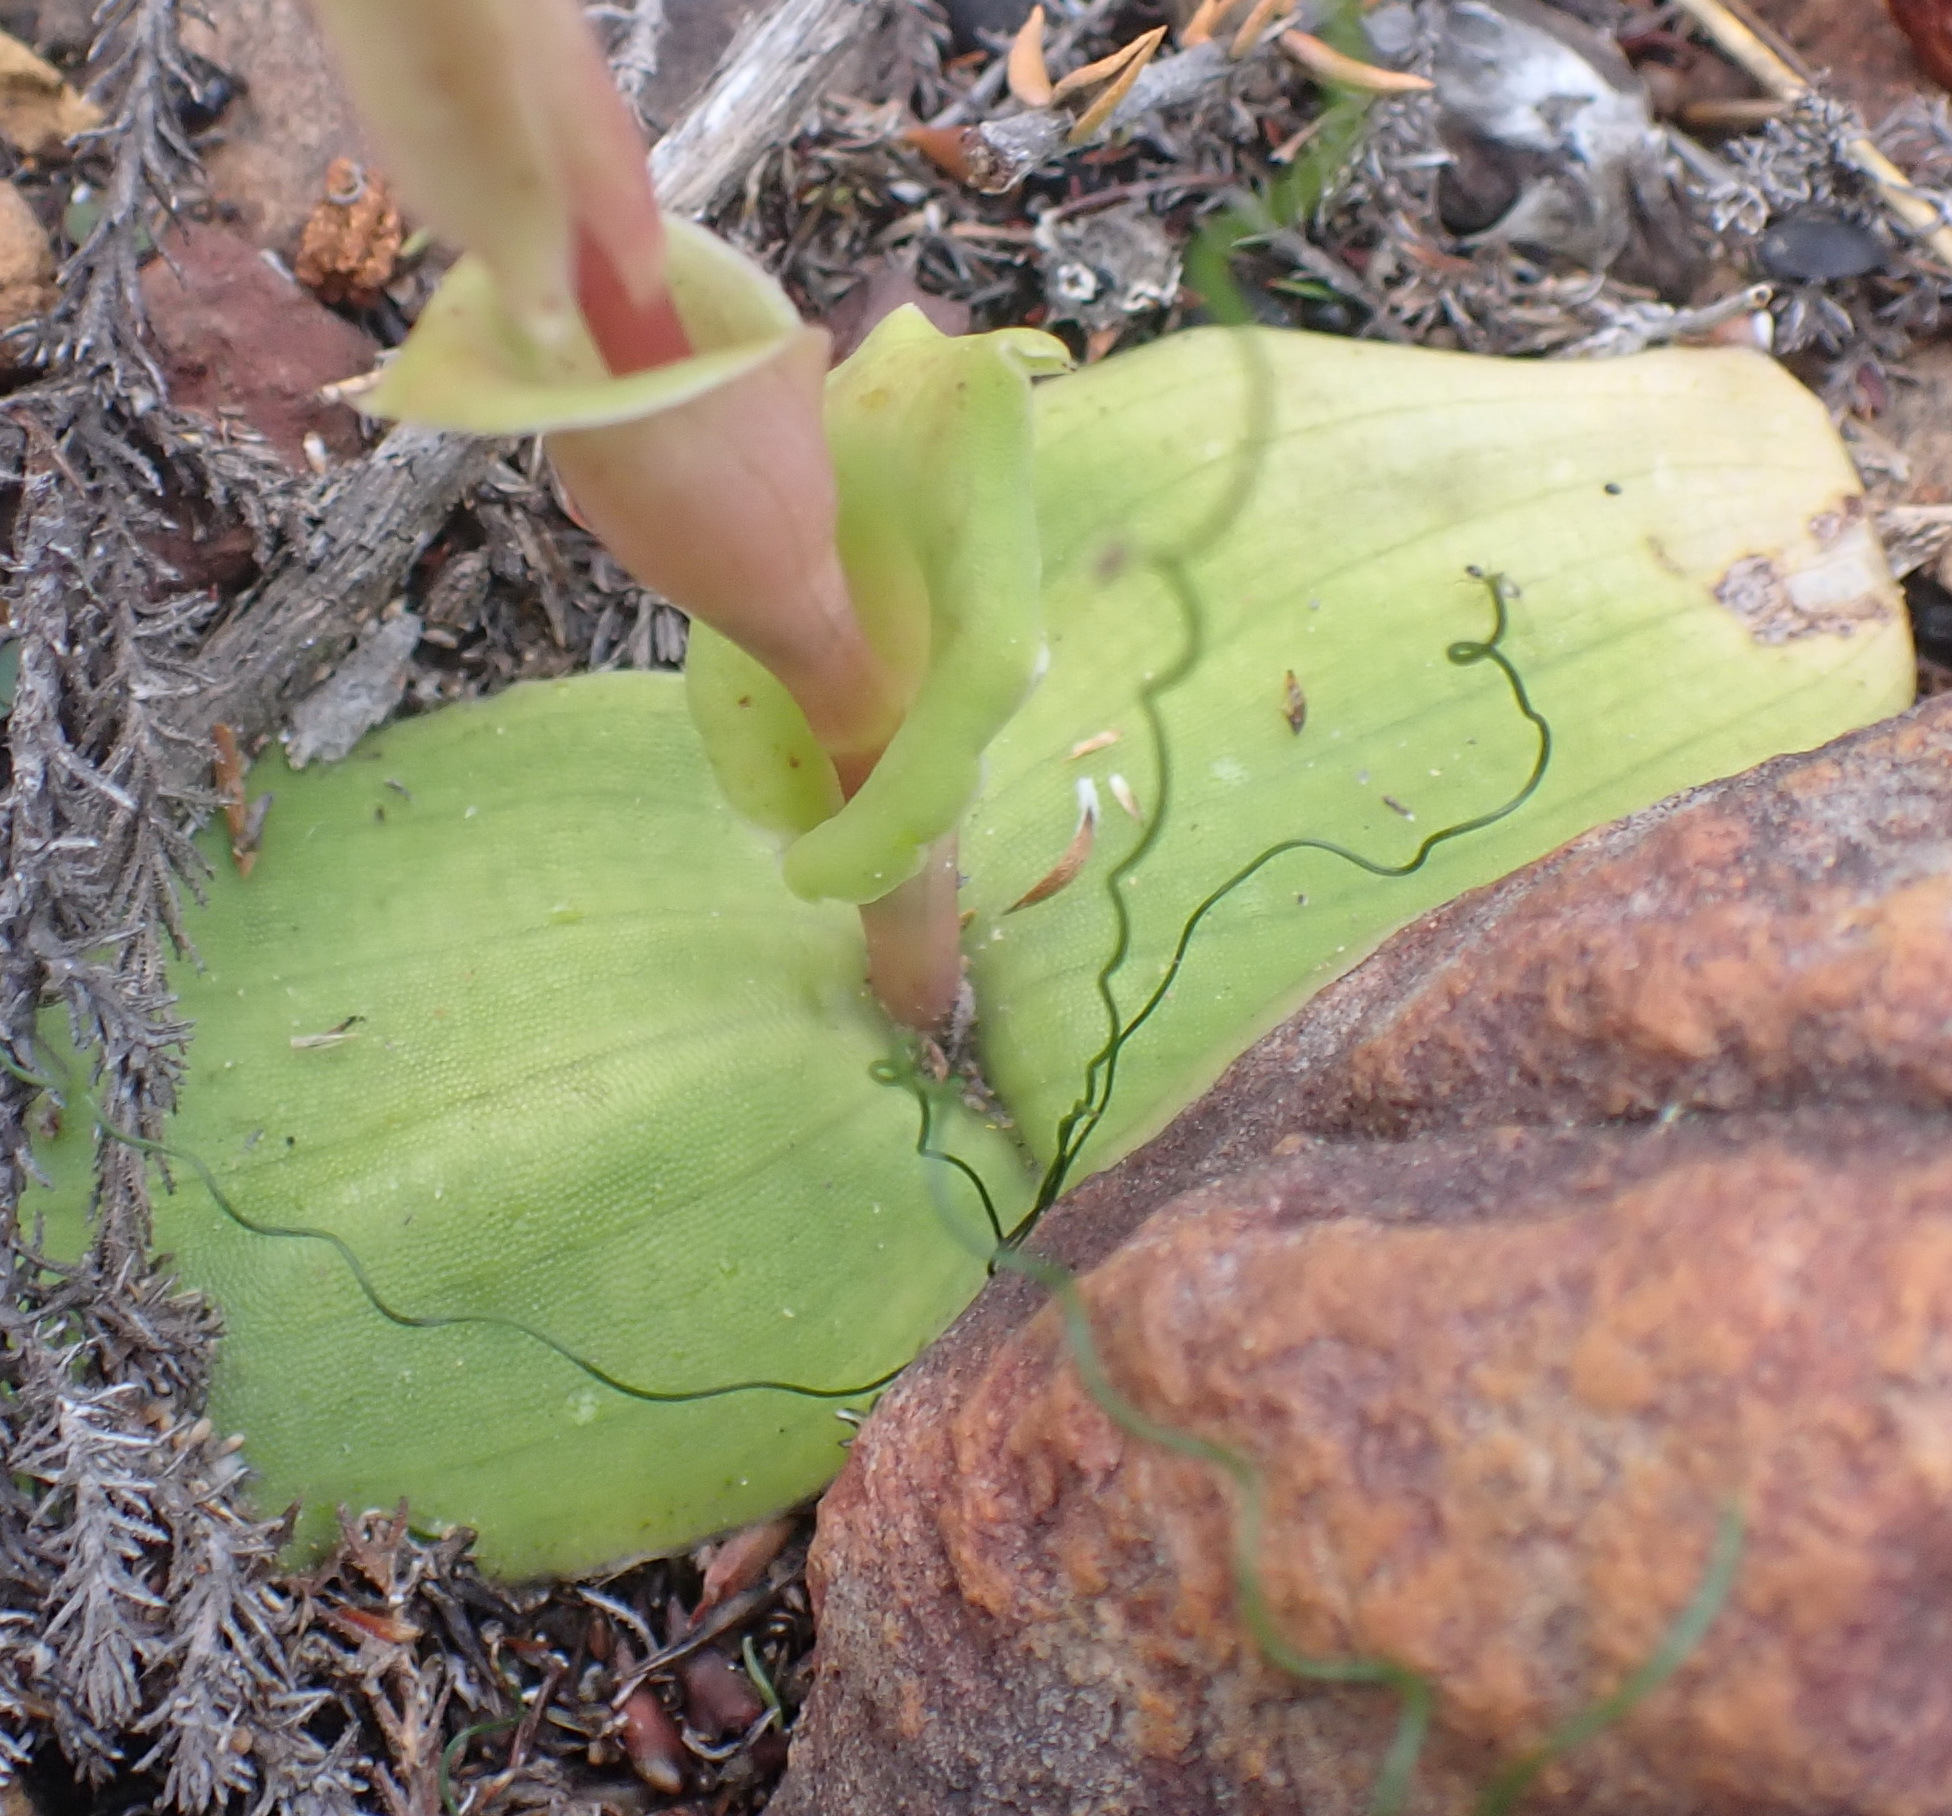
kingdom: Plantae
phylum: Tracheophyta
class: Liliopsida
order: Asparagales
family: Orchidaceae
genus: Satyrium
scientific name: Satyrium humile
